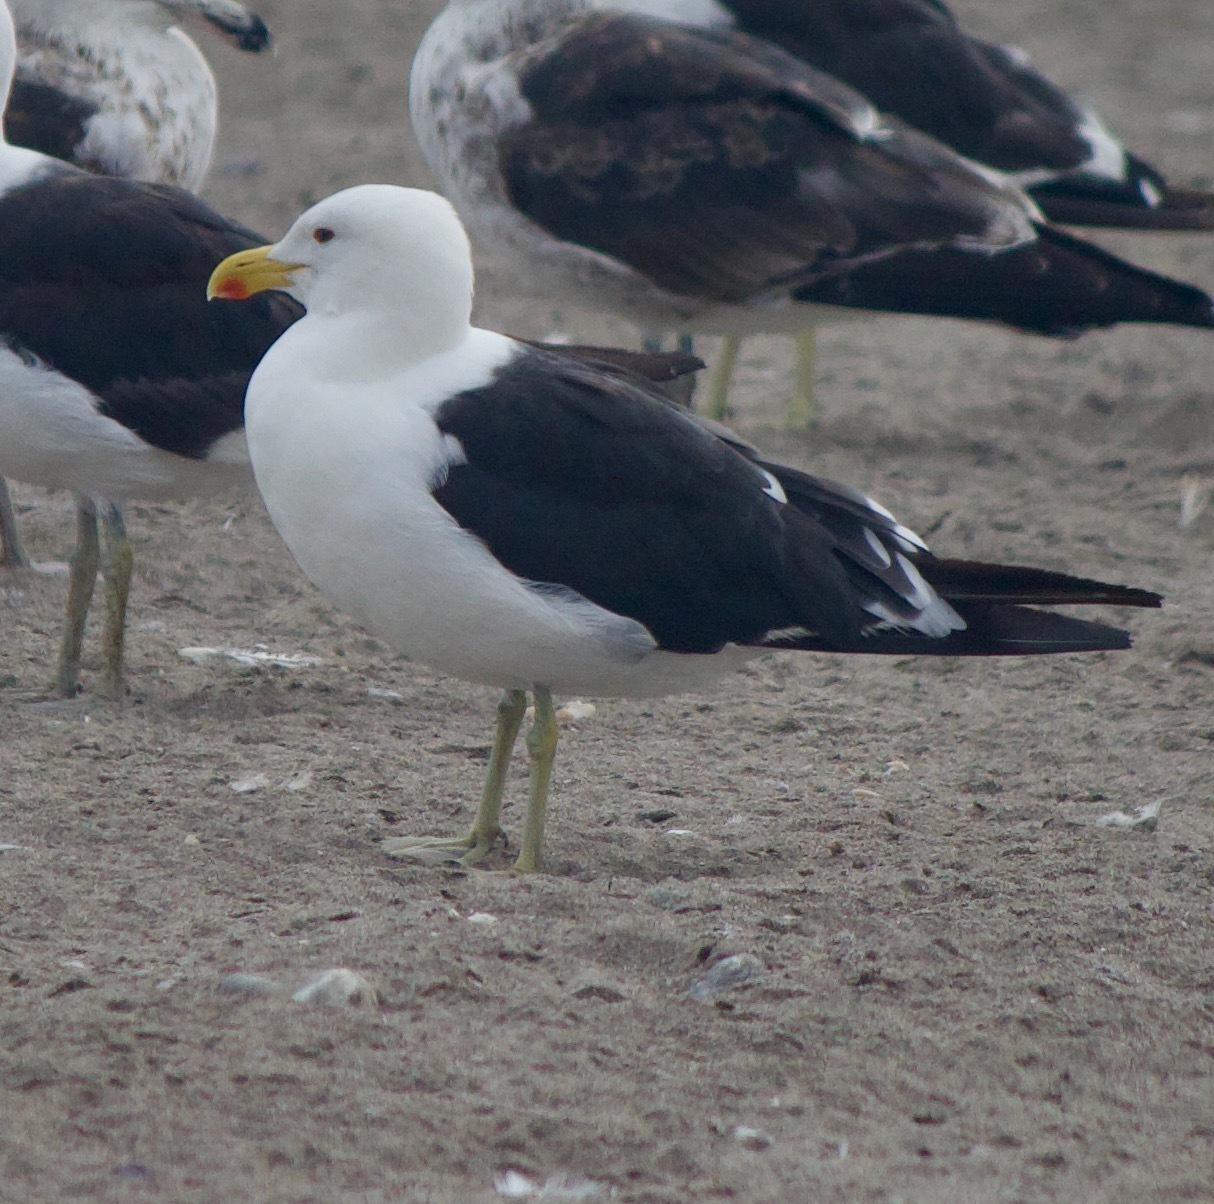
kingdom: Animalia
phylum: Chordata
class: Aves
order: Charadriiformes
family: Laridae
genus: Larus
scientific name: Larus dominicanus
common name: Kelp gull
